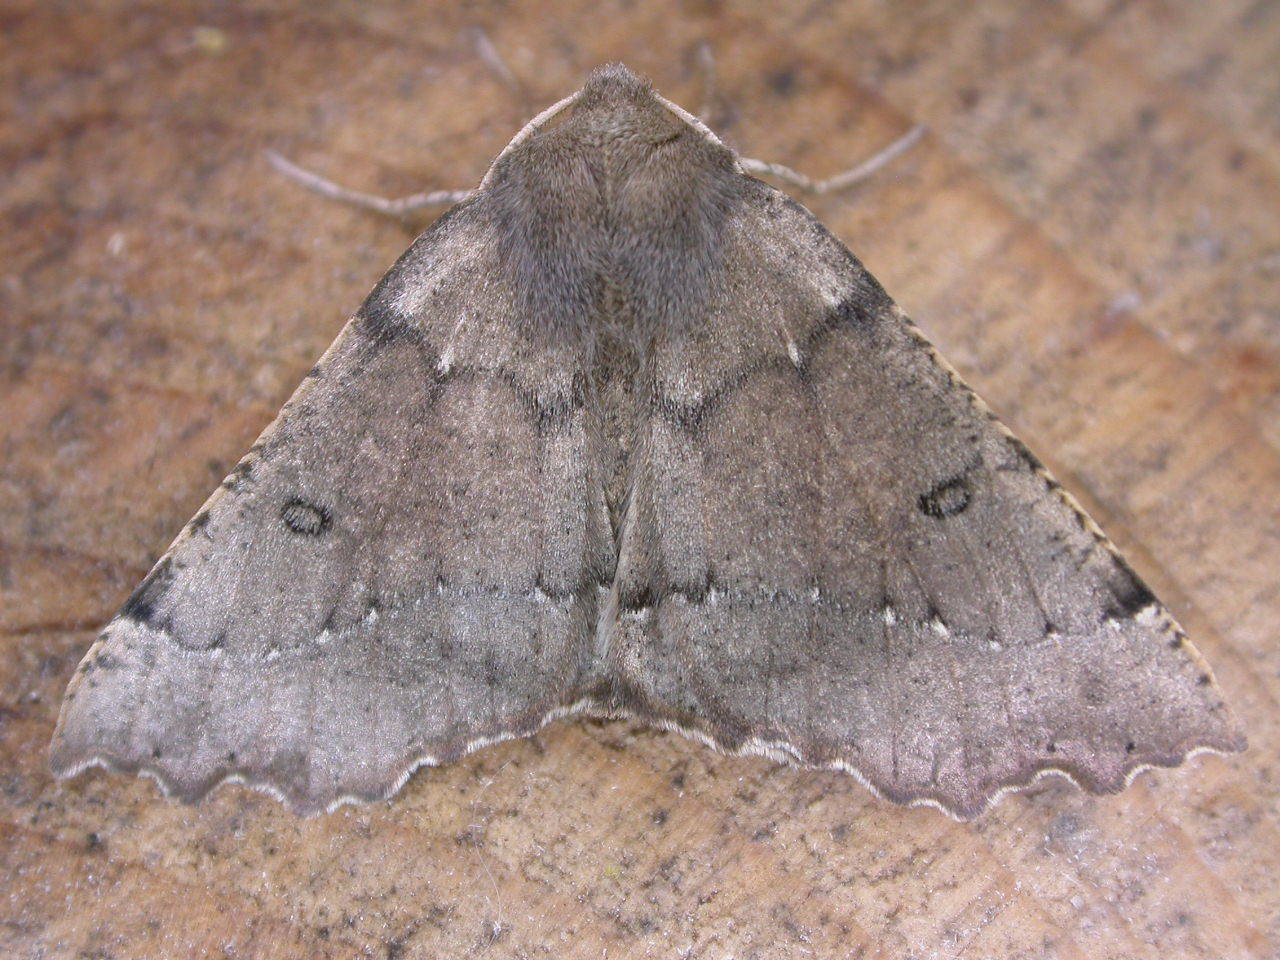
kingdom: Animalia
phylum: Arthropoda
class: Insecta
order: Lepidoptera
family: Geometridae
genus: Odontopera
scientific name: Odontopera bidentata
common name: Scalloped hazel
